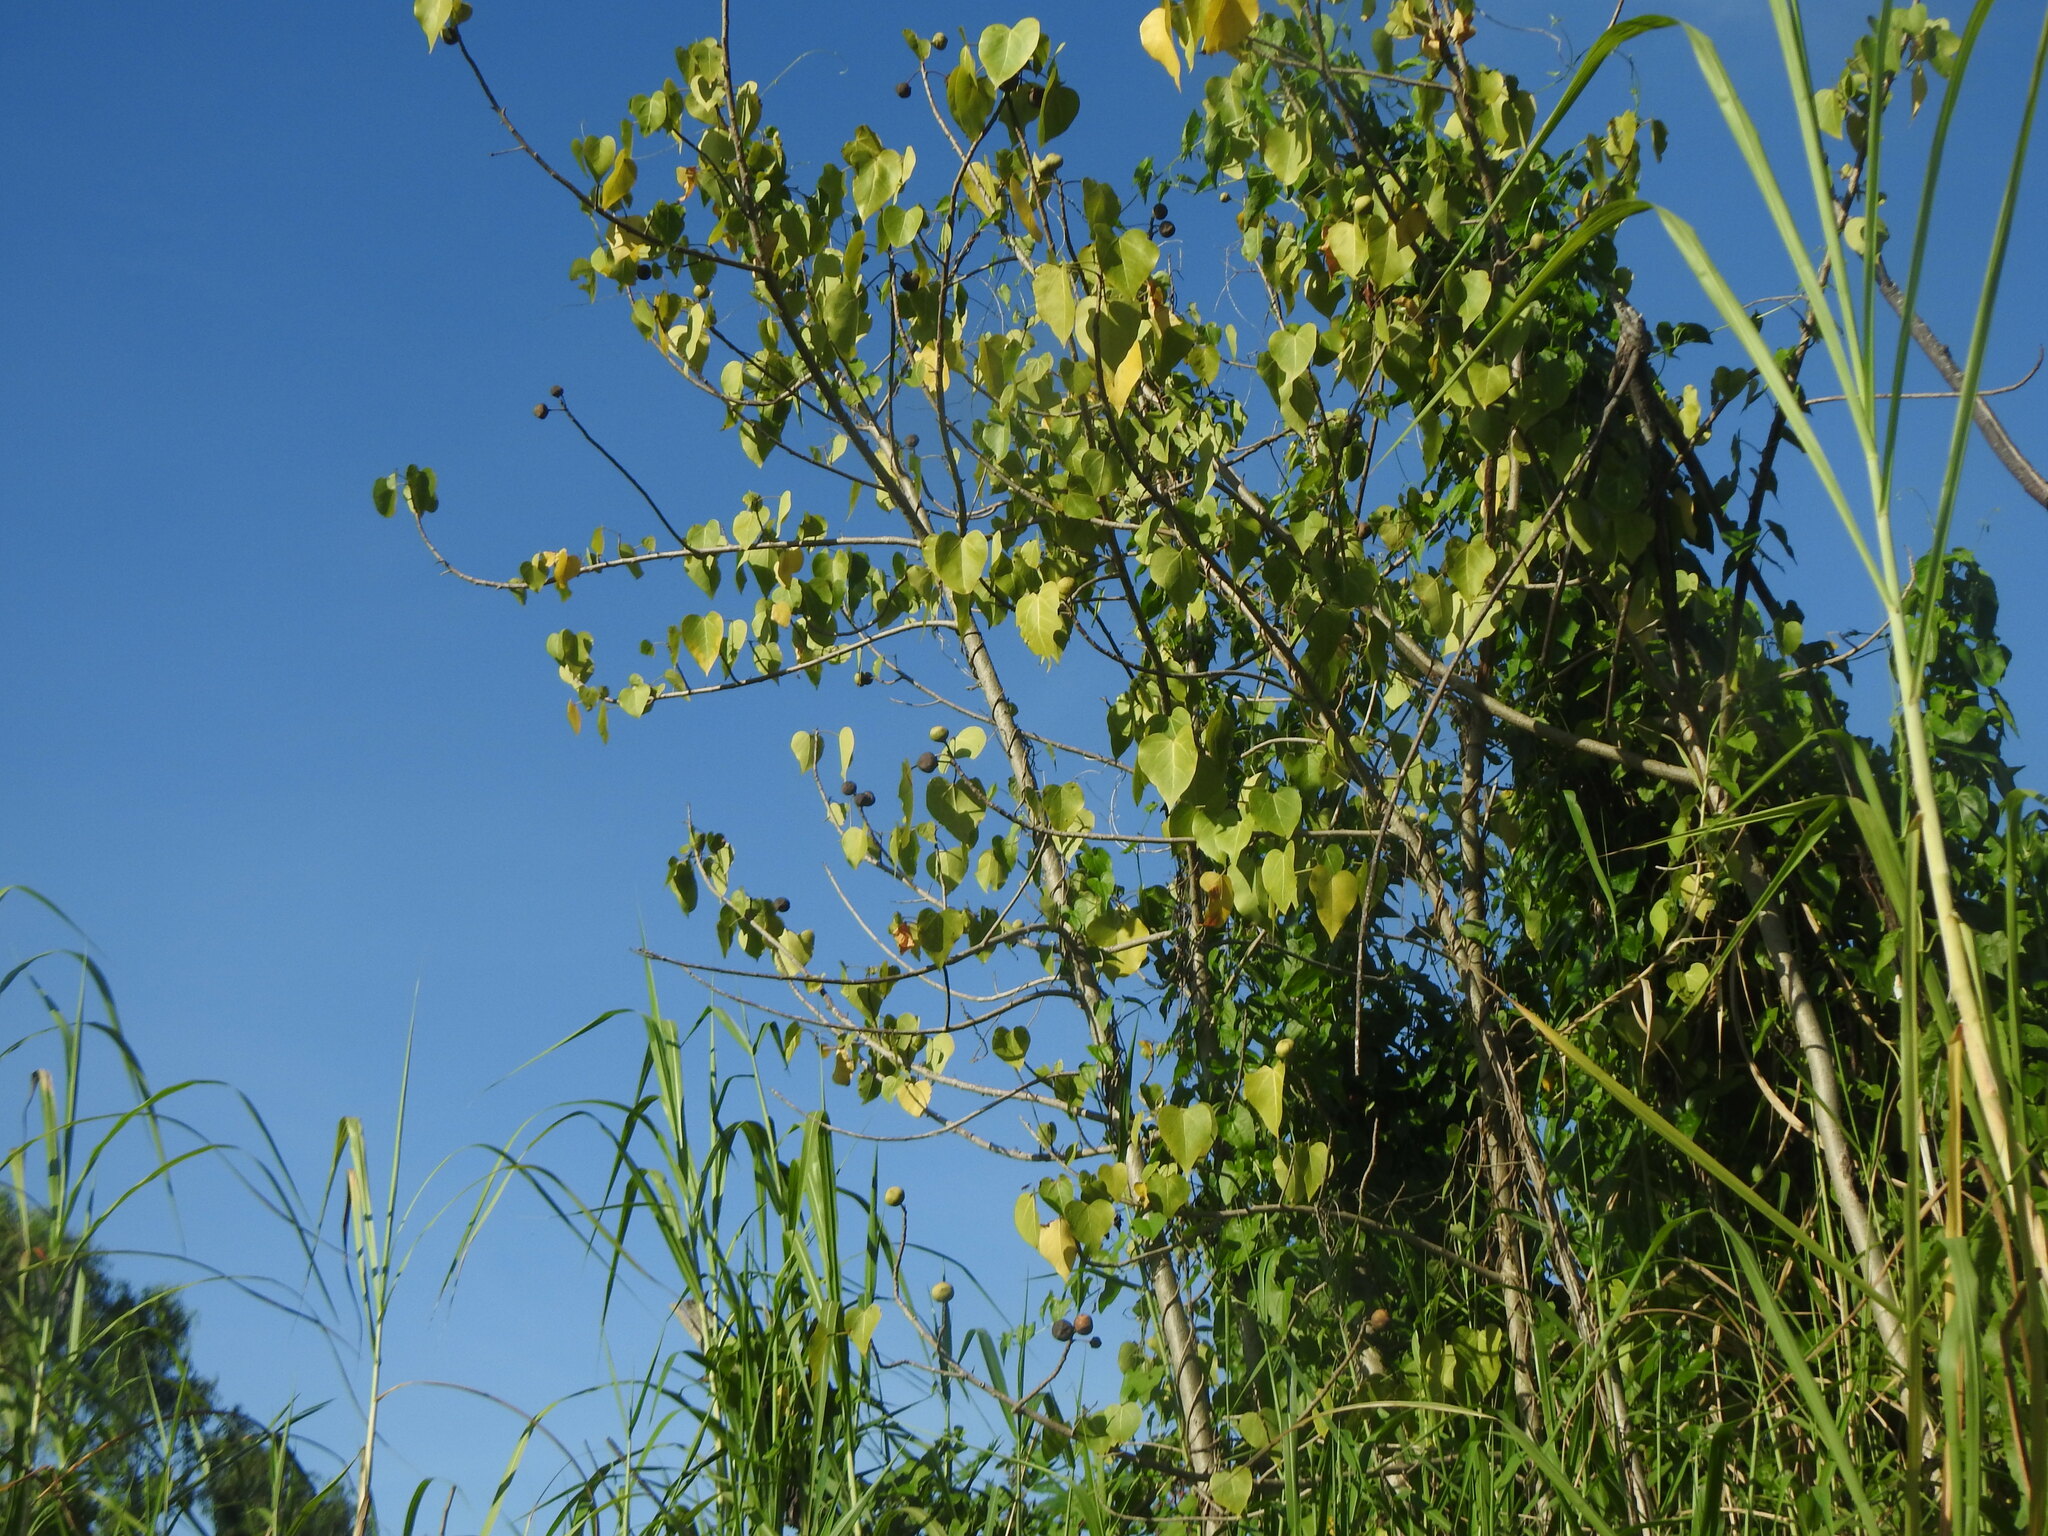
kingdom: Plantae
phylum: Tracheophyta
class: Magnoliopsida
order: Malvales
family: Malvaceae
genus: Thespesia
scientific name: Thespesia populnea
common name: Seaside mahoe
